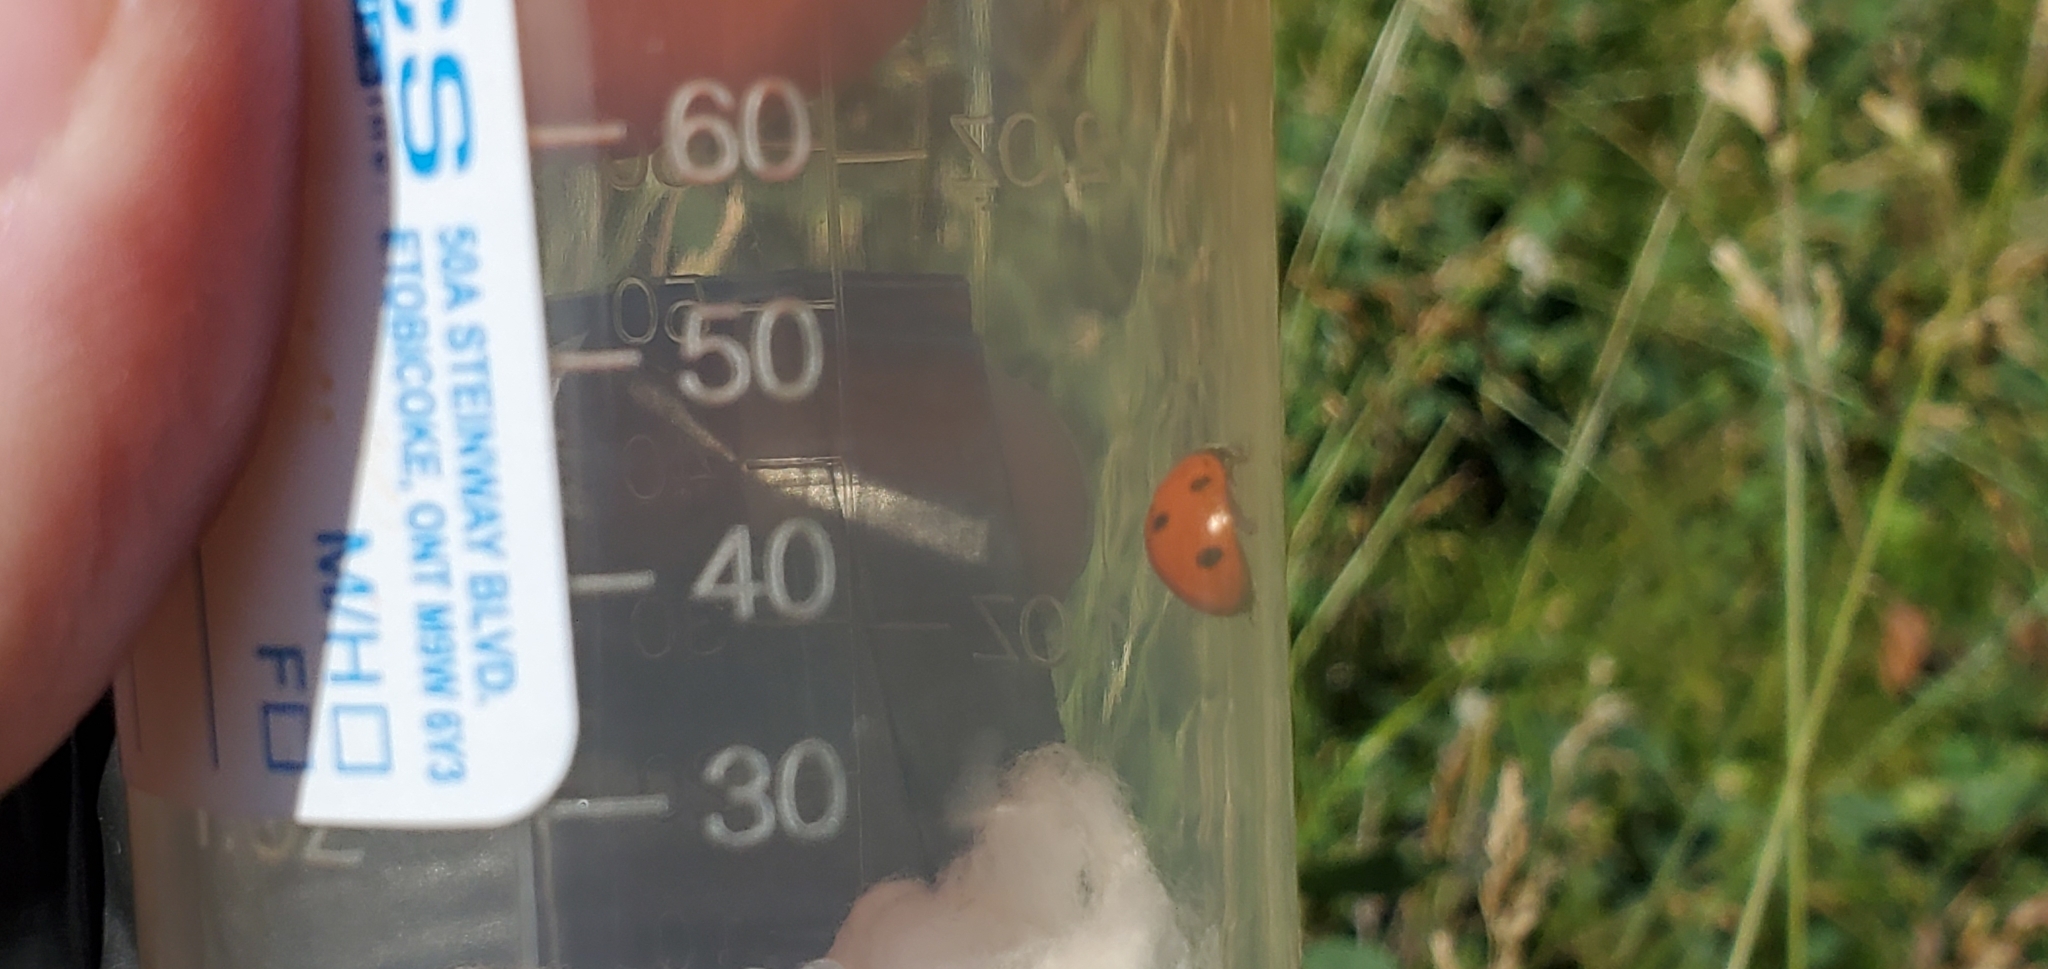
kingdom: Animalia
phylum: Arthropoda
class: Insecta
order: Coleoptera
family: Coccinellidae
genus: Coccinella
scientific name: Coccinella septempunctata
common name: Sevenspotted lady beetle
